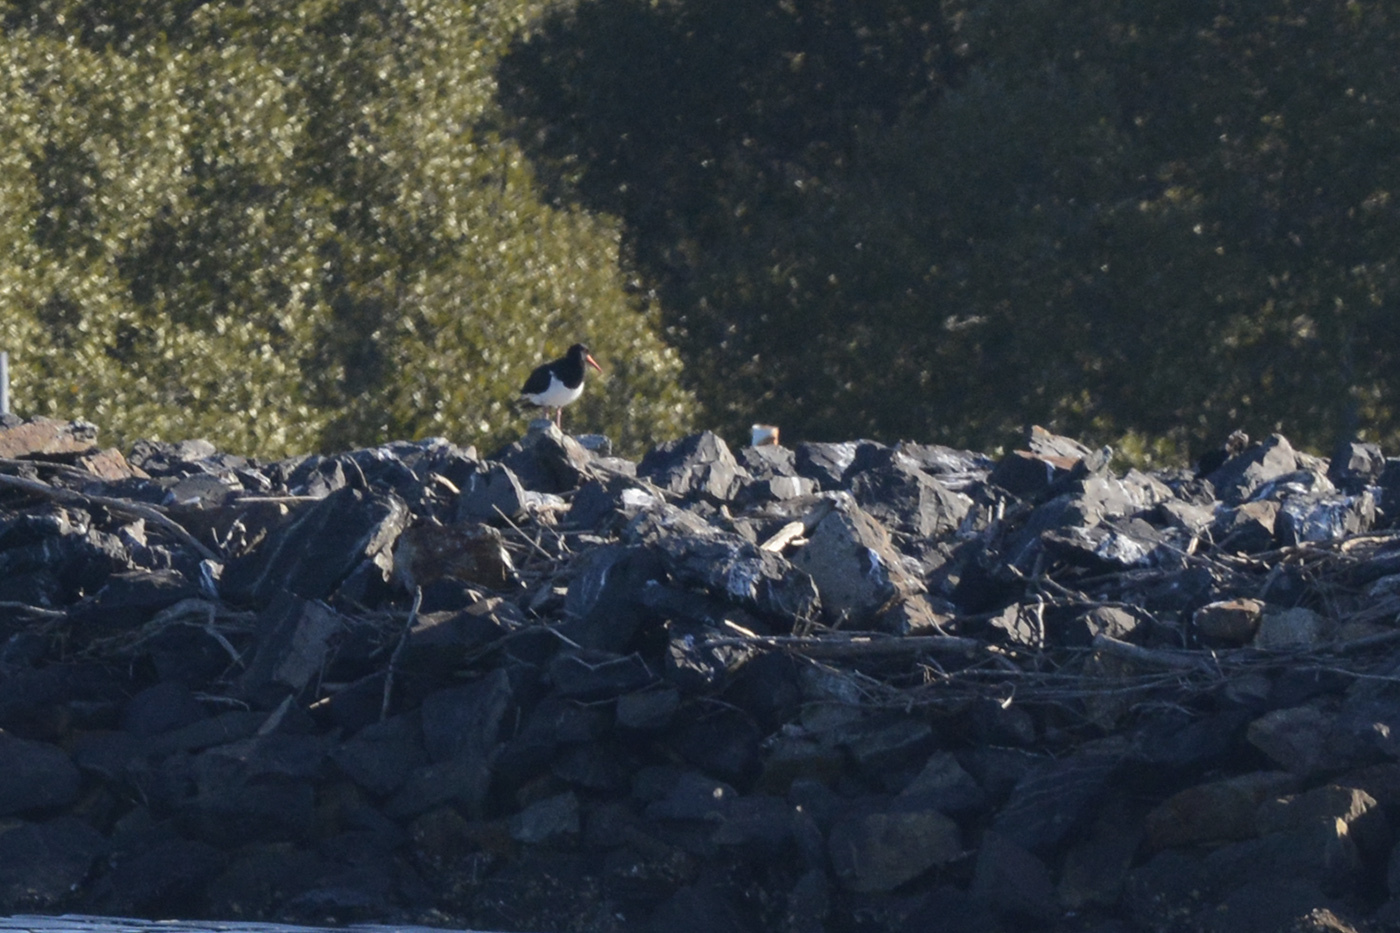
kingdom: Animalia
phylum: Chordata
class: Aves
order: Charadriiformes
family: Haematopodidae
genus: Haematopus
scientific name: Haematopus longirostris
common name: Pied oystercatcher
